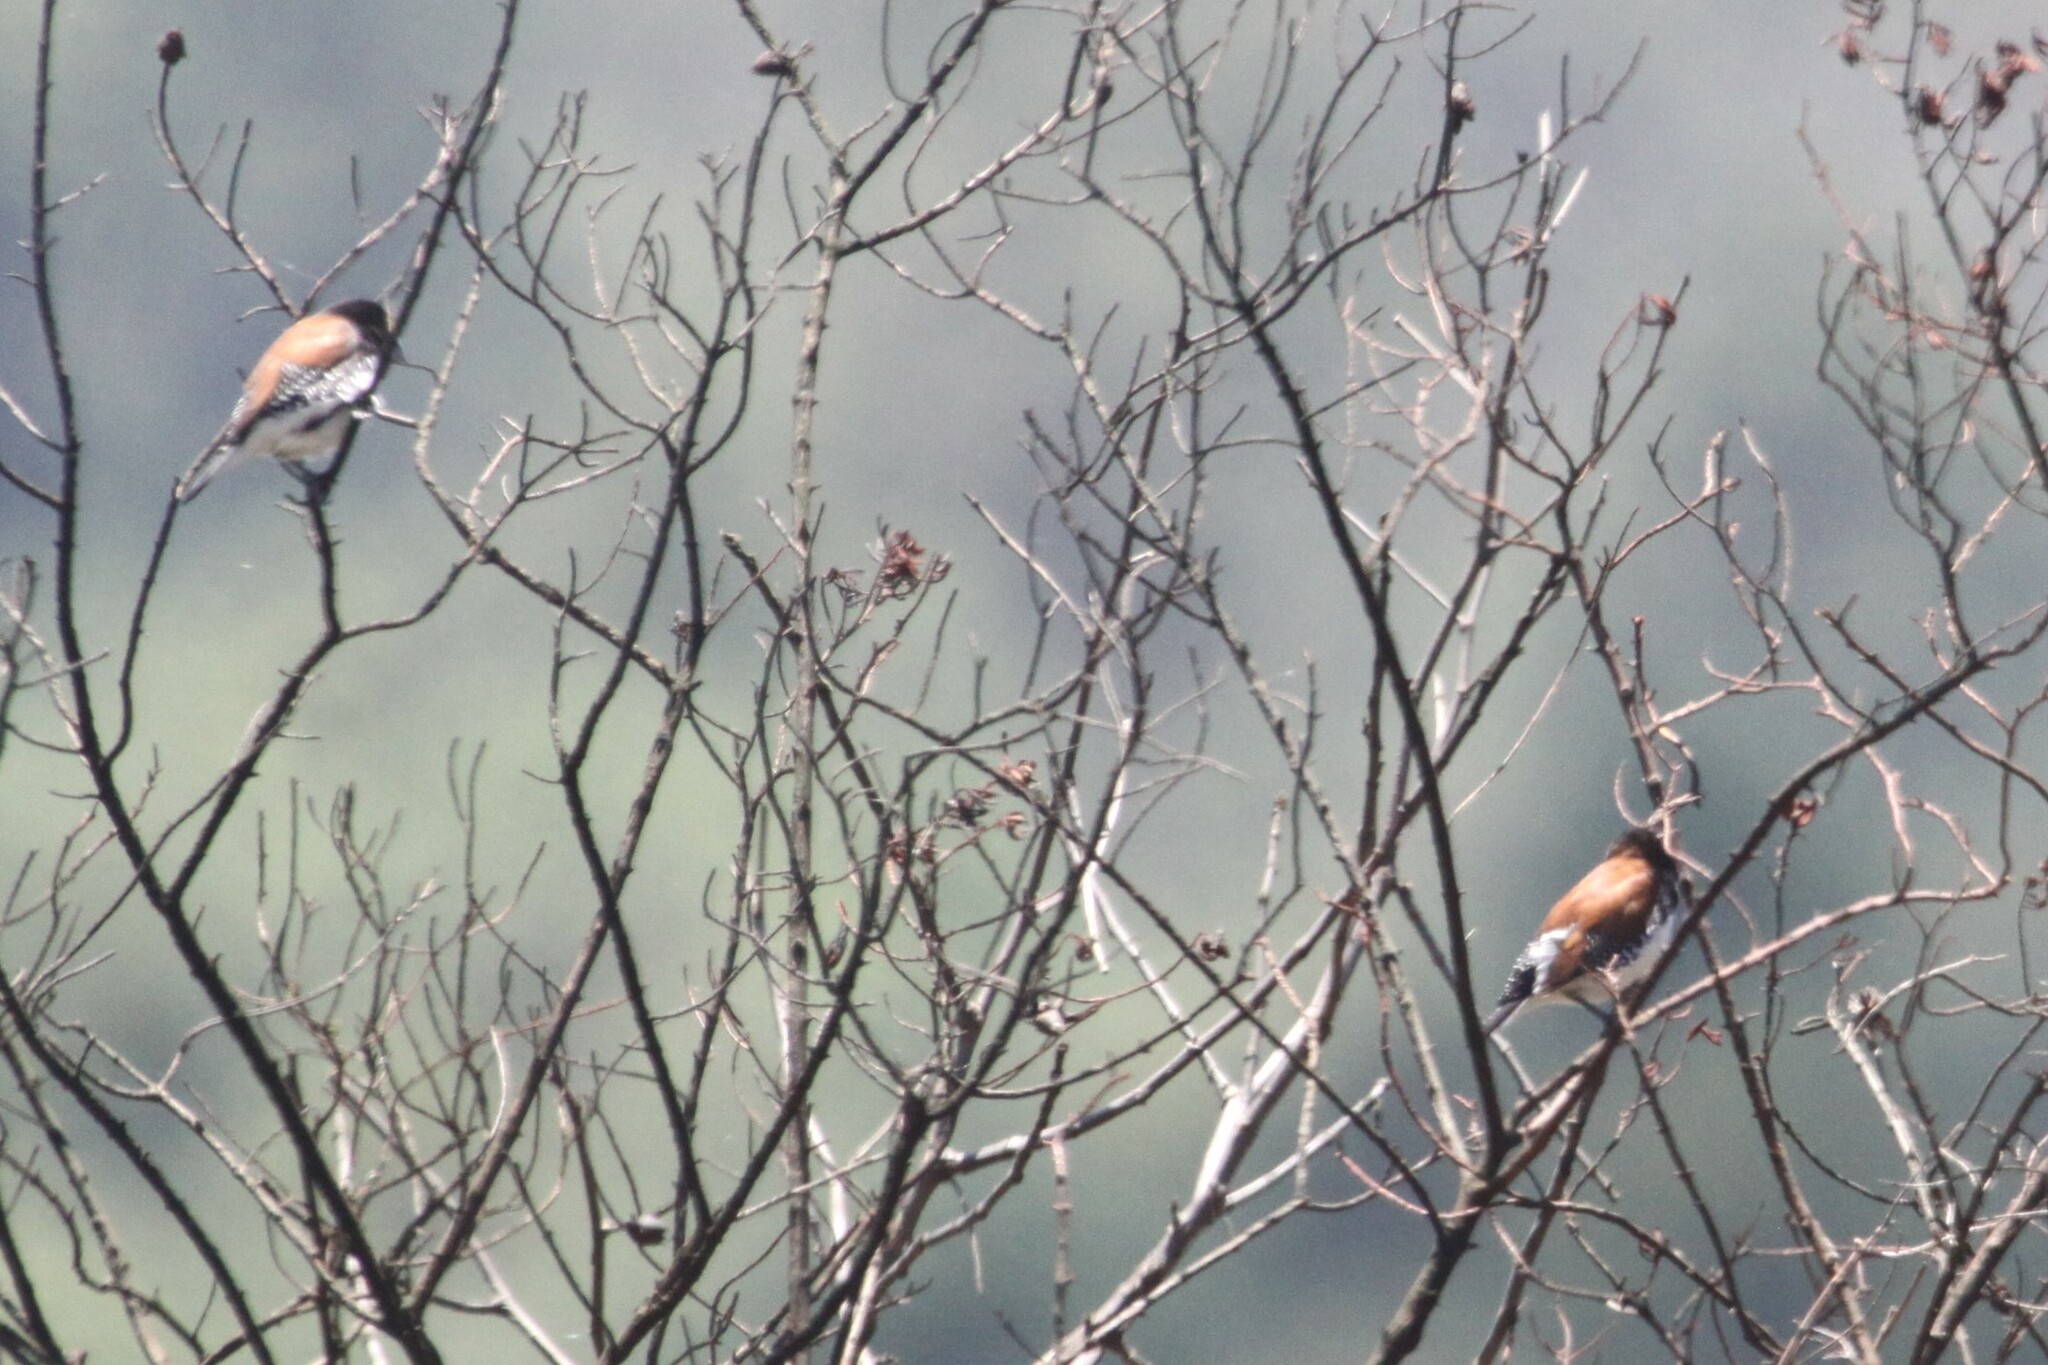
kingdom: Animalia
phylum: Chordata
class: Aves
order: Passeriformes
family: Estrildidae
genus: Lonchura
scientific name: Lonchura nigriceps
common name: Red-backed mannikin
